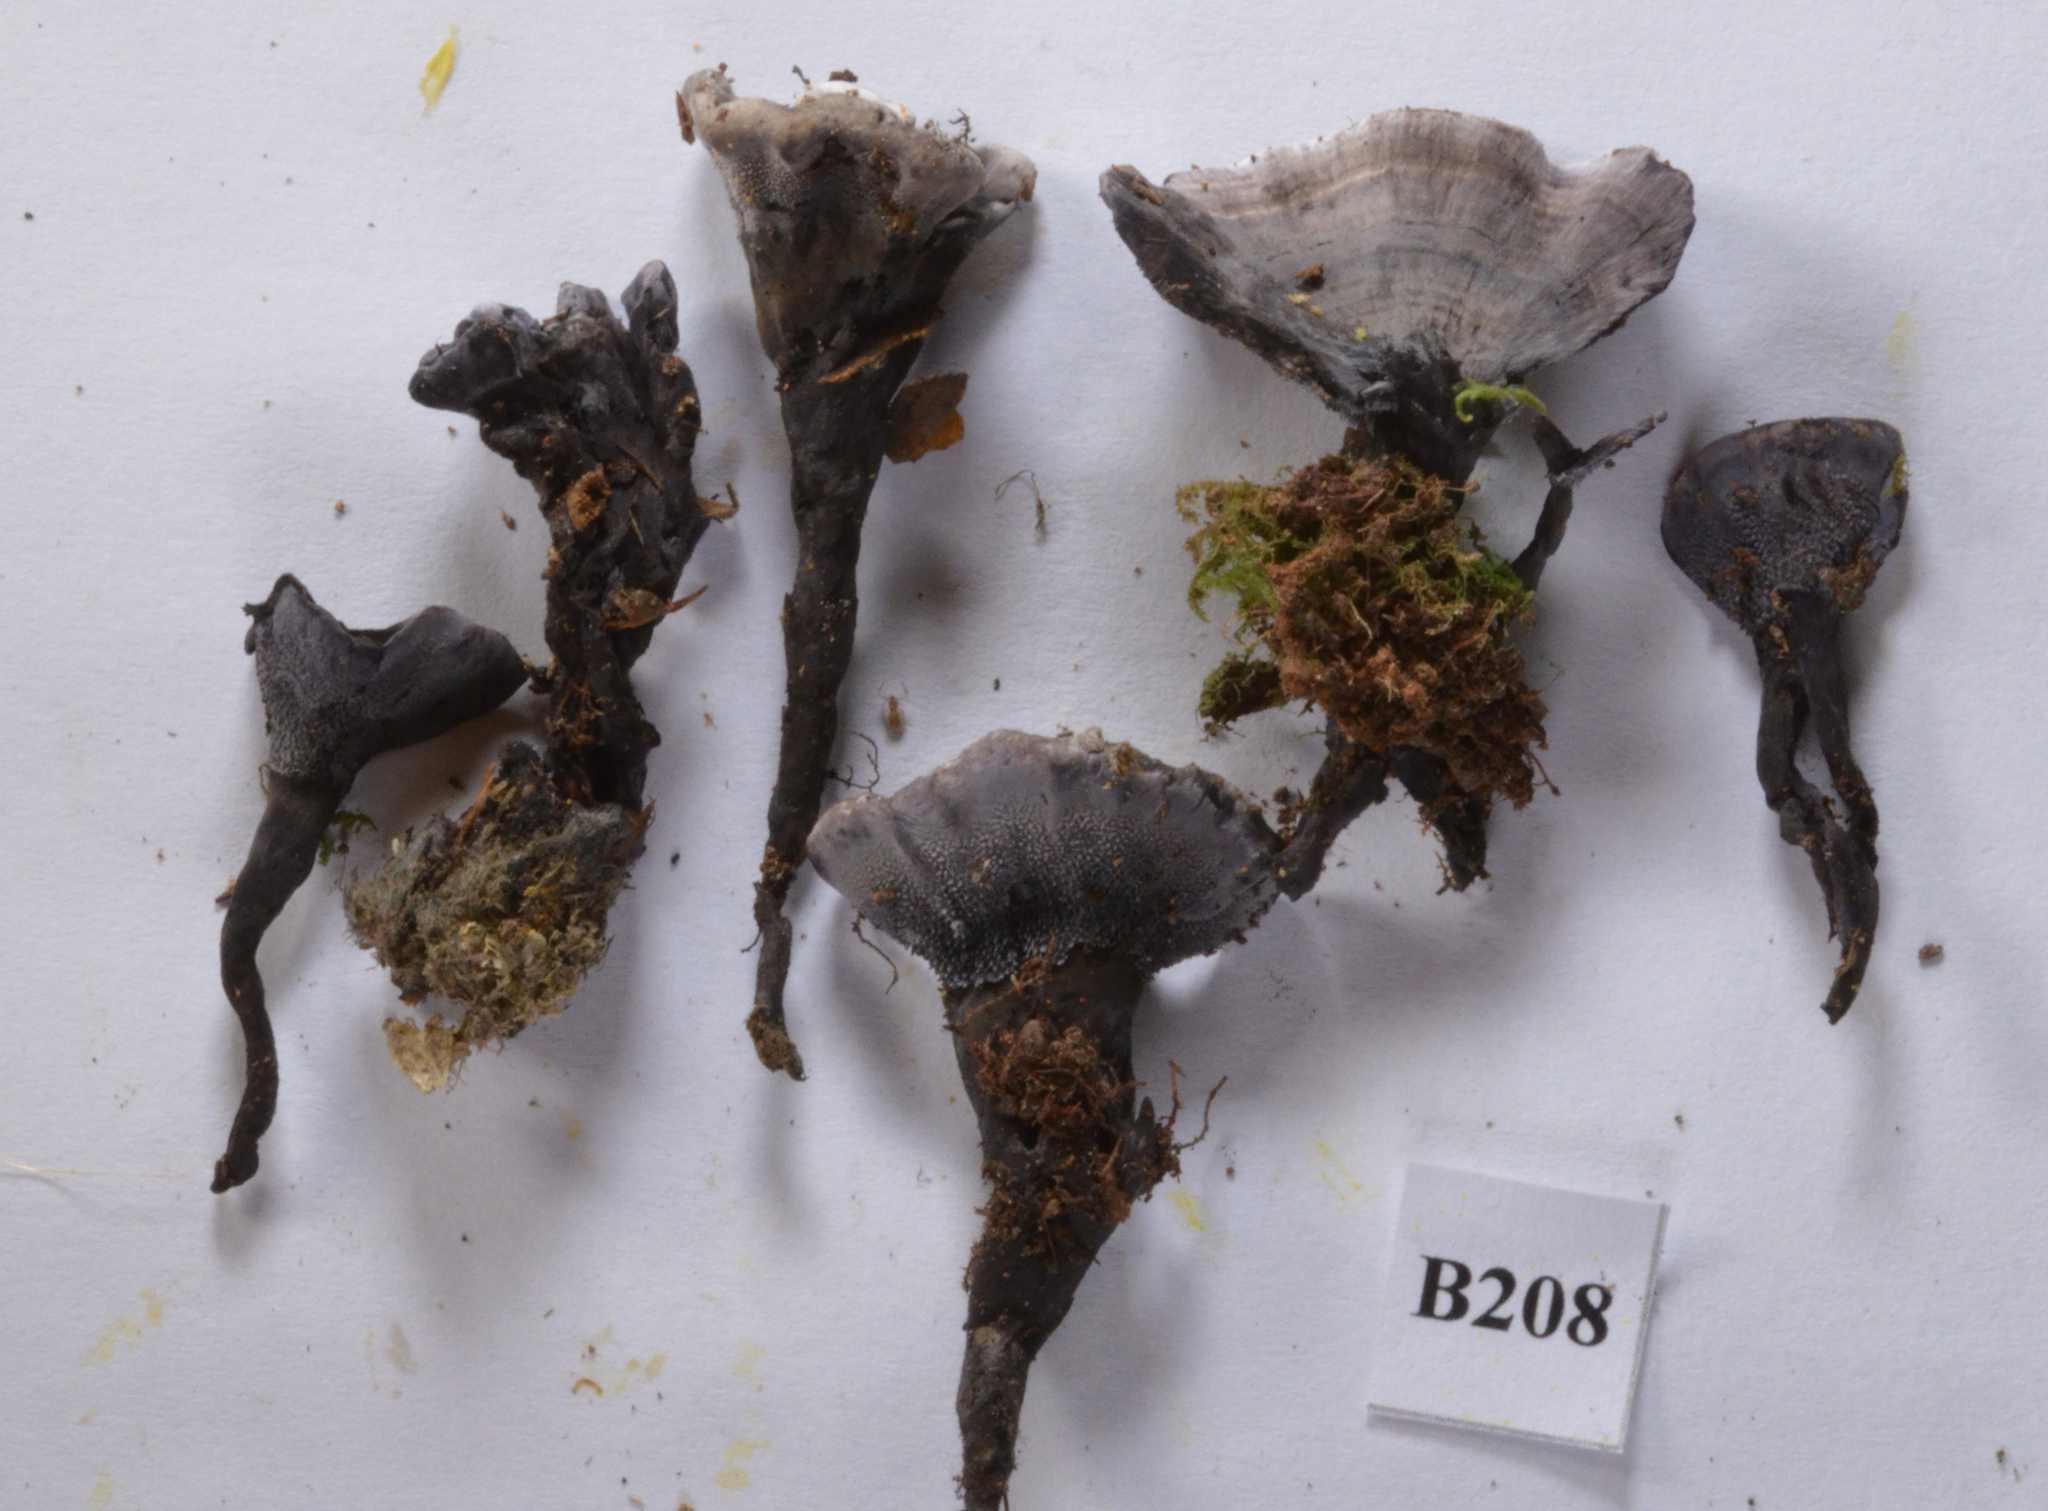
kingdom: Fungi
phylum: Basidiomycota
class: Agaricomycetes
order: Thelephorales
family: Thelephoraceae
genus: Phellodon
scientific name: Phellodon sinclairii
